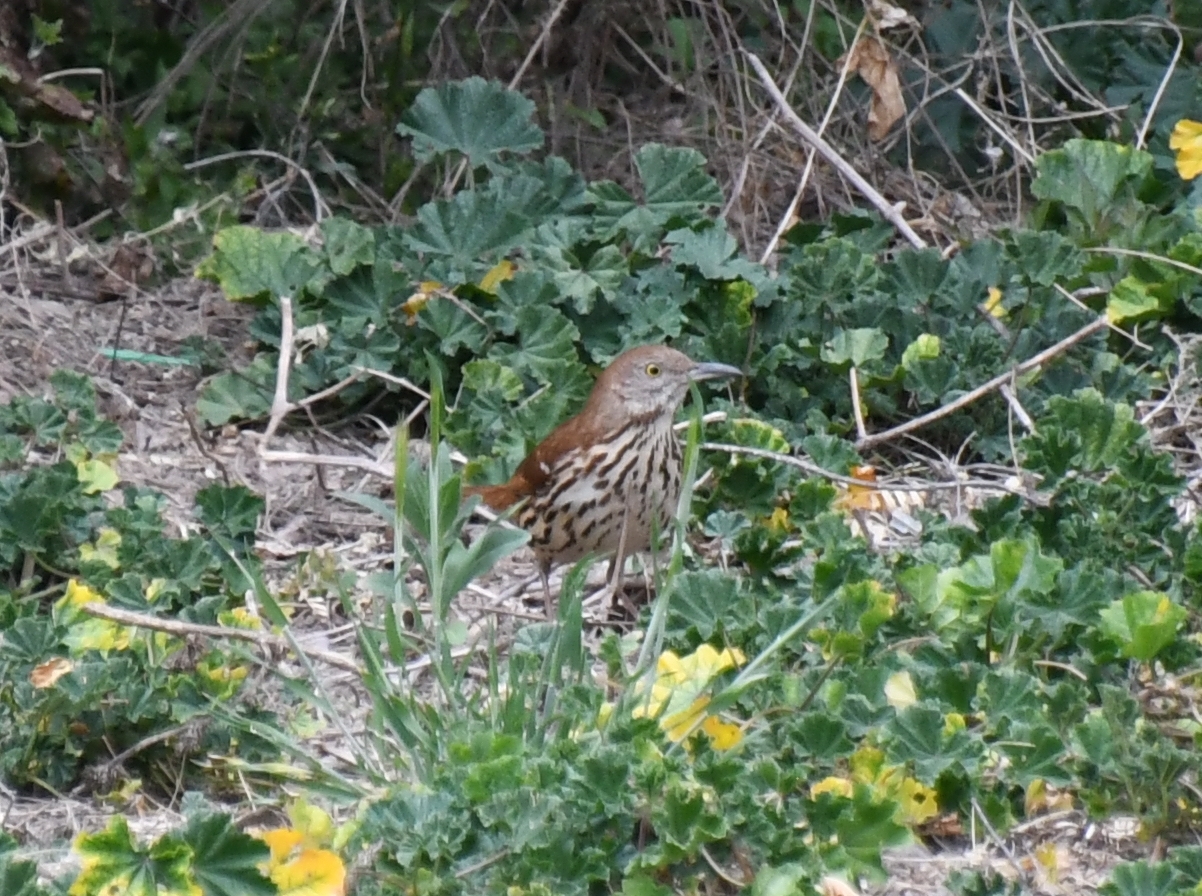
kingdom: Animalia
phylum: Chordata
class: Aves
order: Passeriformes
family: Mimidae
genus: Toxostoma
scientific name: Toxostoma rufum
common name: Brown thrasher
